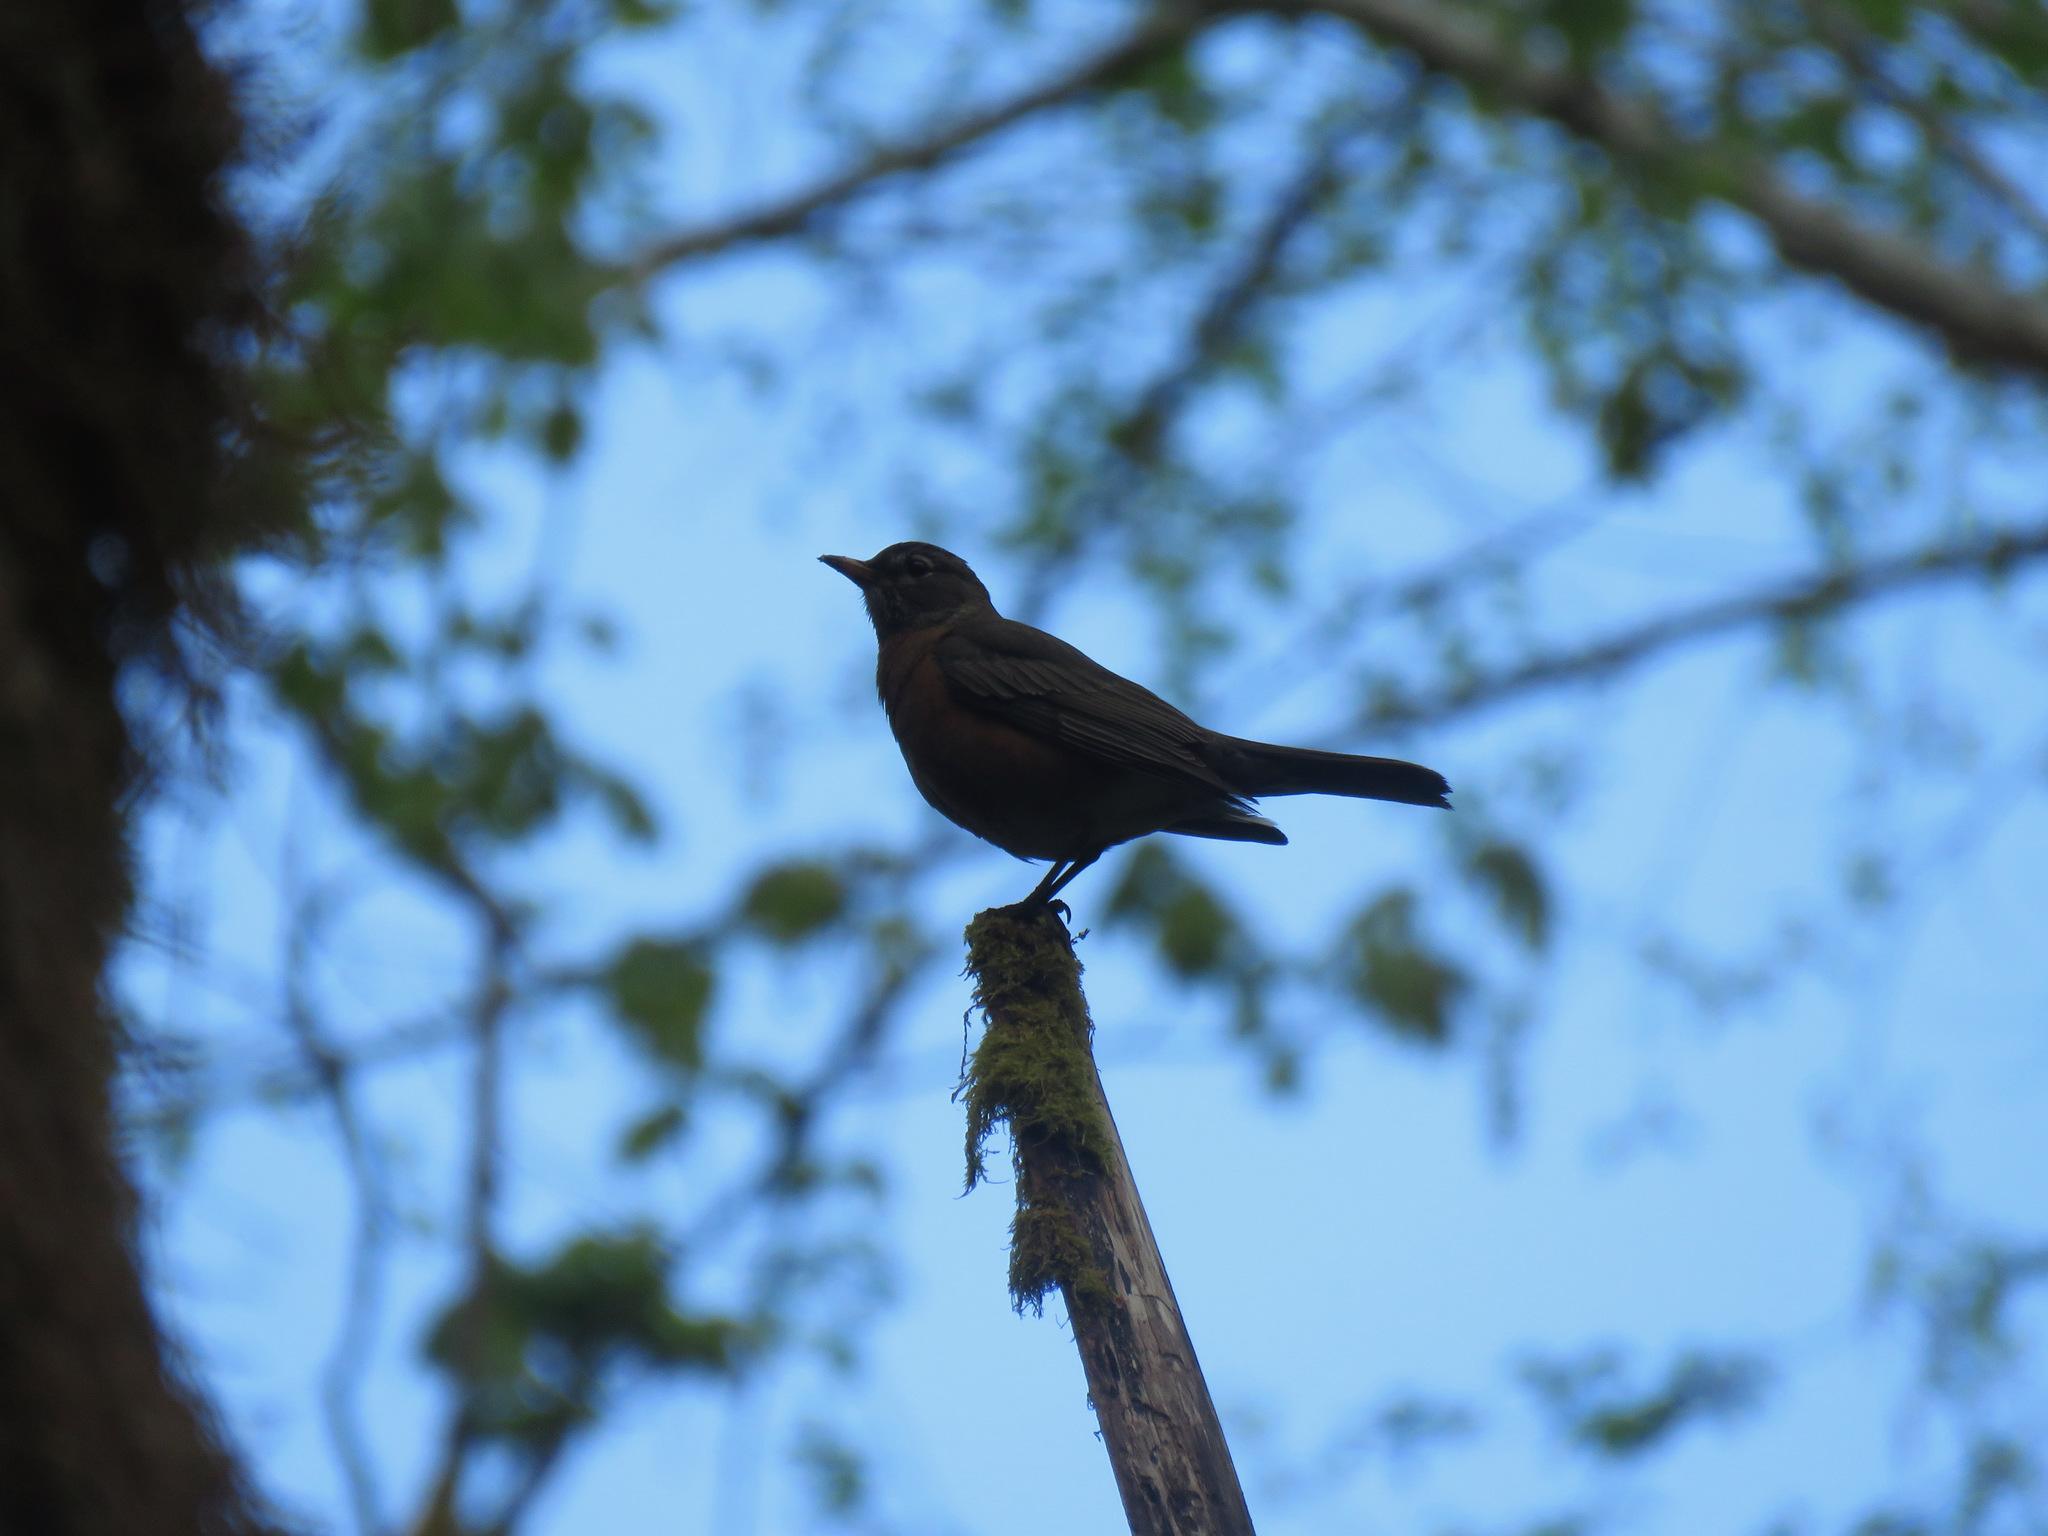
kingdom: Animalia
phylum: Chordata
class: Aves
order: Passeriformes
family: Turdidae
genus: Turdus
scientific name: Turdus migratorius
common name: American robin
